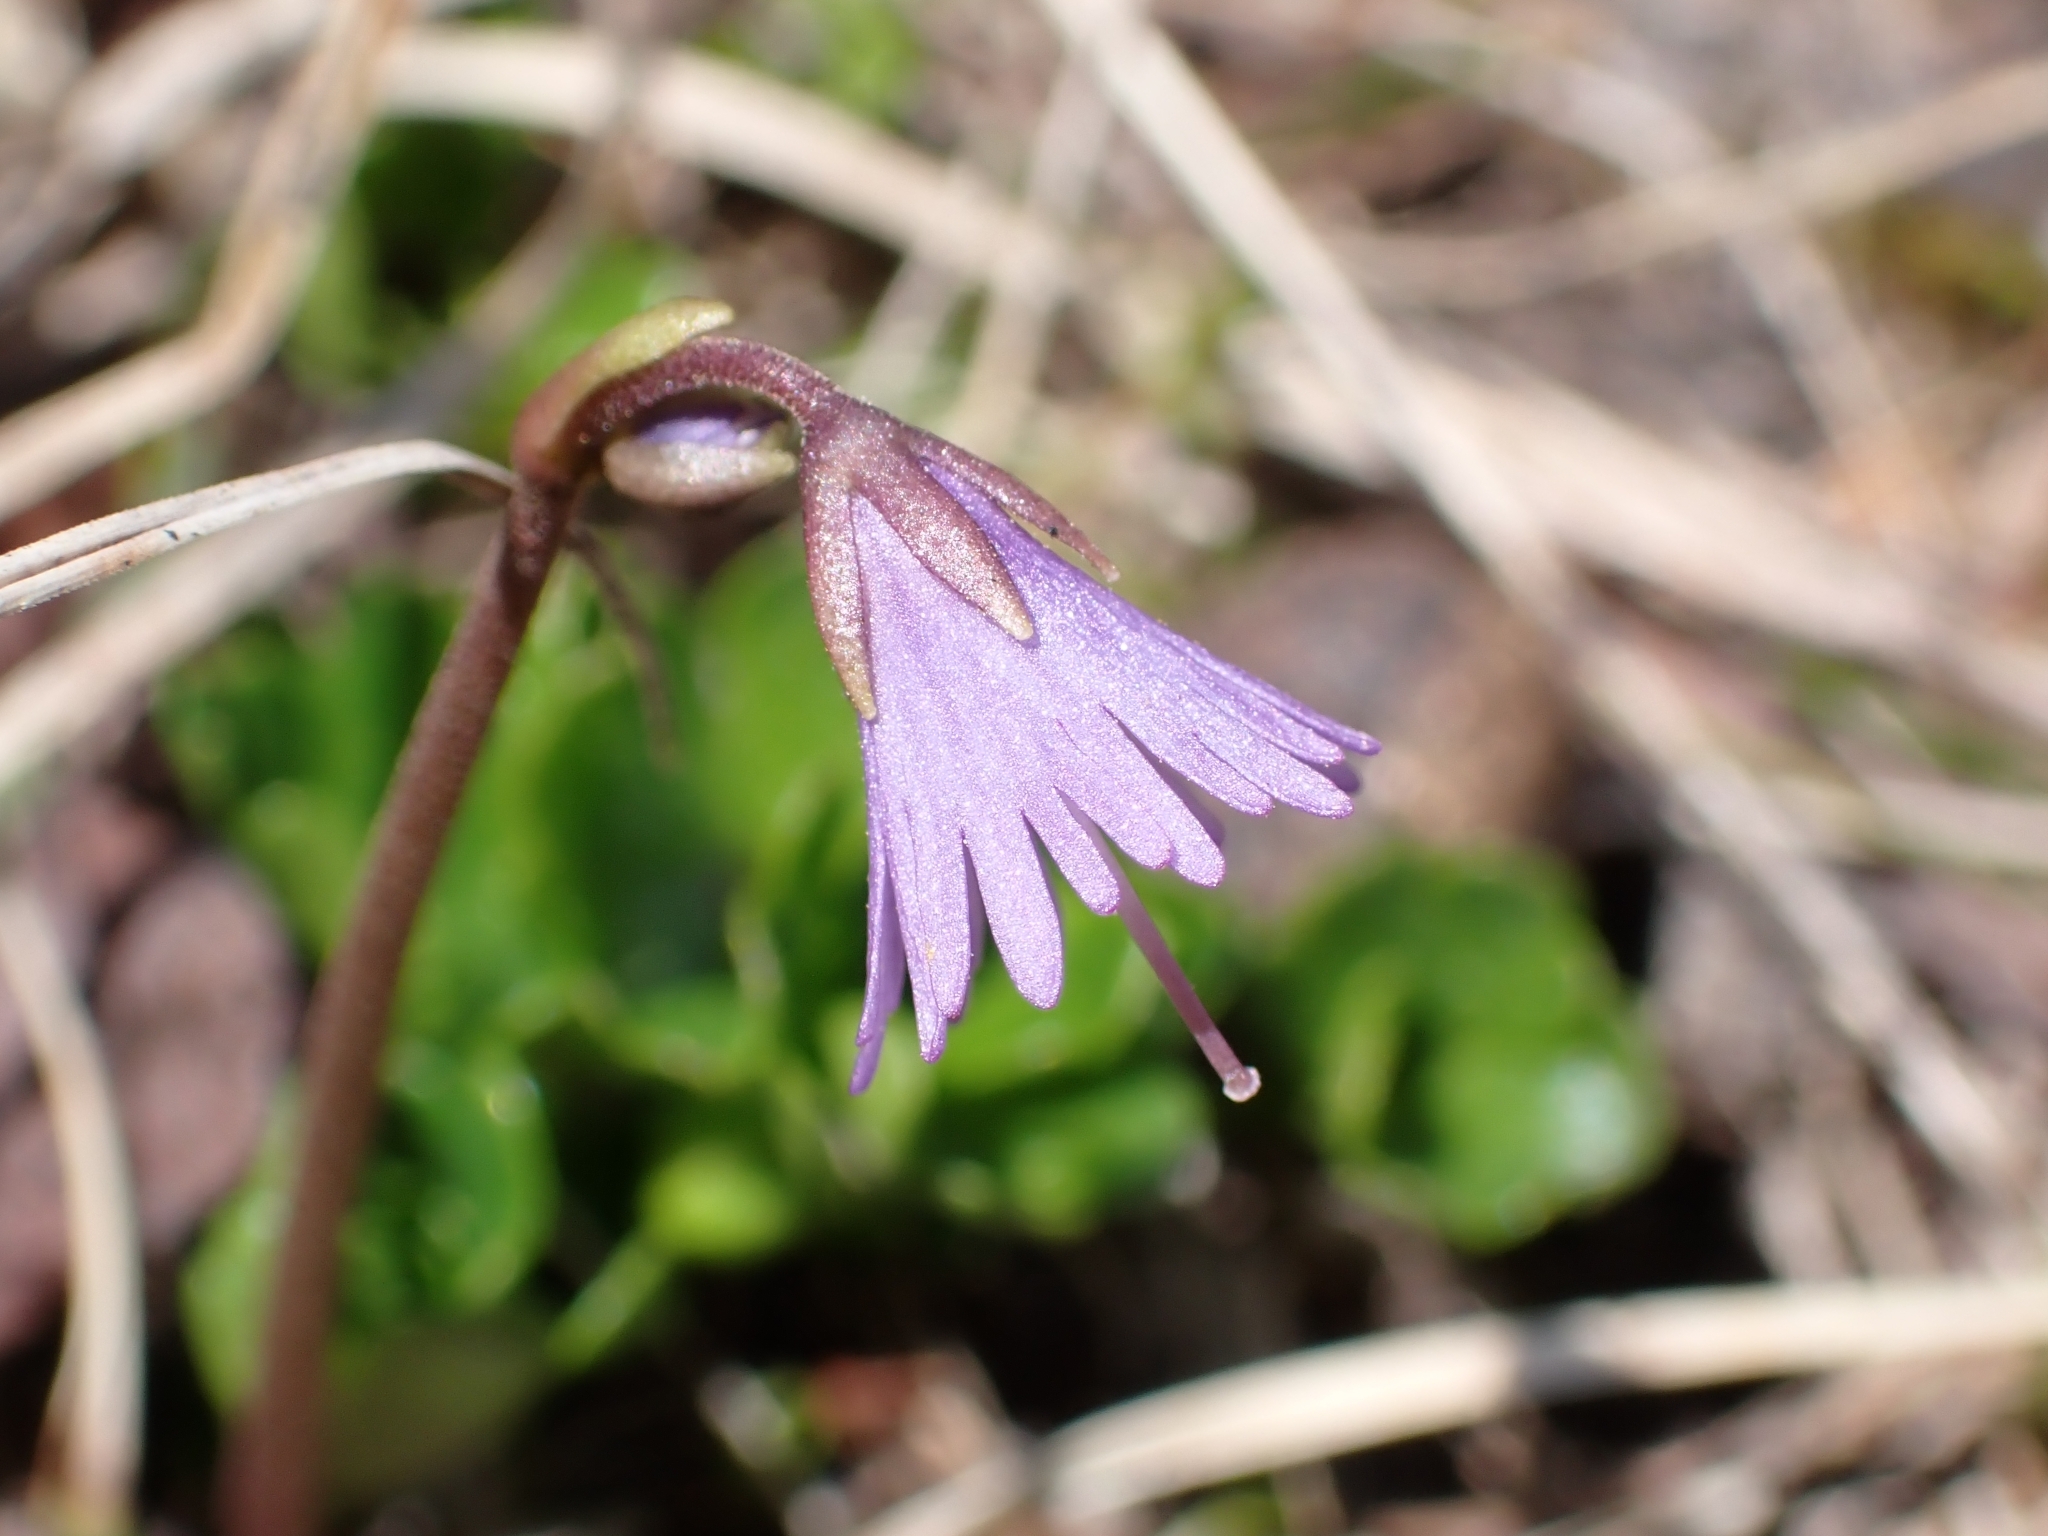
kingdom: Plantae
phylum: Tracheophyta
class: Magnoliopsida
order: Ericales
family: Primulaceae
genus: Soldanella
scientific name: Soldanella alpina
